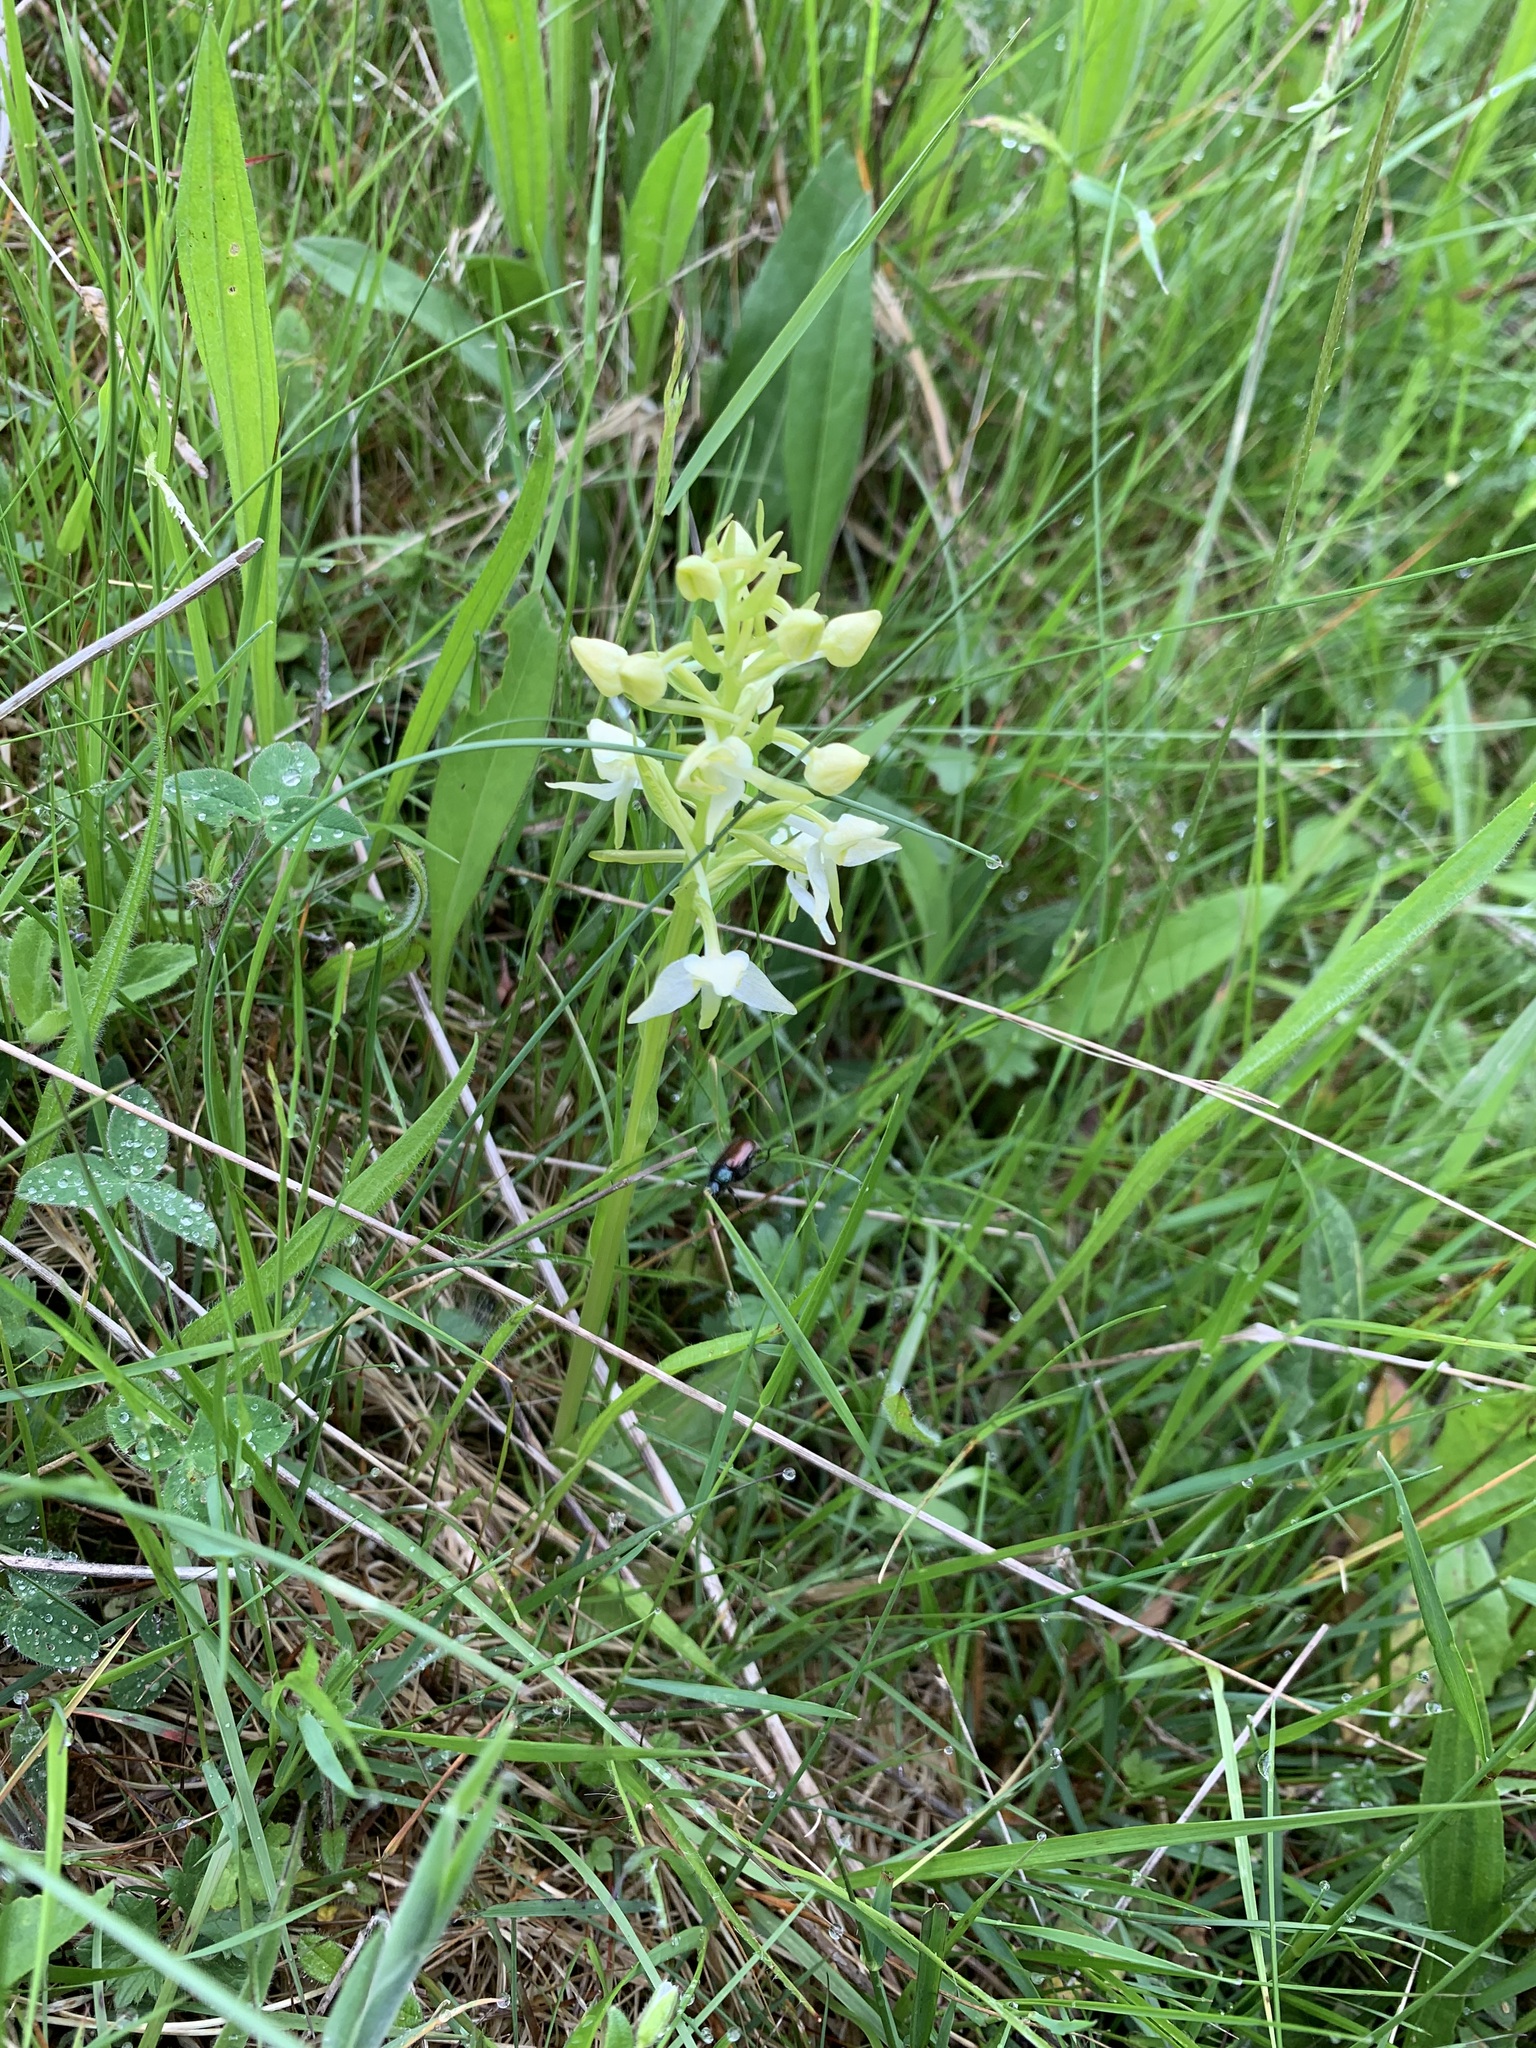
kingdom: Plantae
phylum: Tracheophyta
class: Liliopsida
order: Asparagales
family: Orchidaceae
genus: Platanthera
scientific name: Platanthera chlorantha
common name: Greater butterfly-orchid
